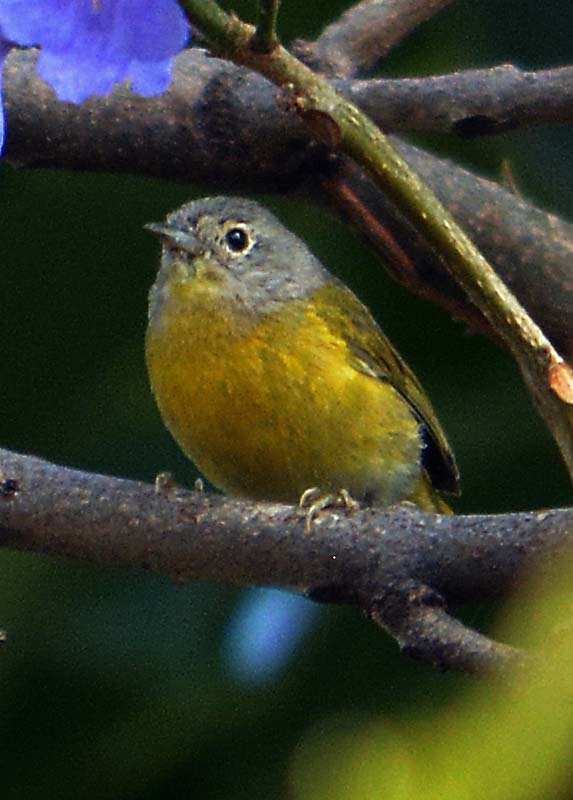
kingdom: Animalia
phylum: Chordata
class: Aves
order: Passeriformes
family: Parulidae
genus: Leiothlypis
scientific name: Leiothlypis ruficapilla
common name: Nashville warbler
